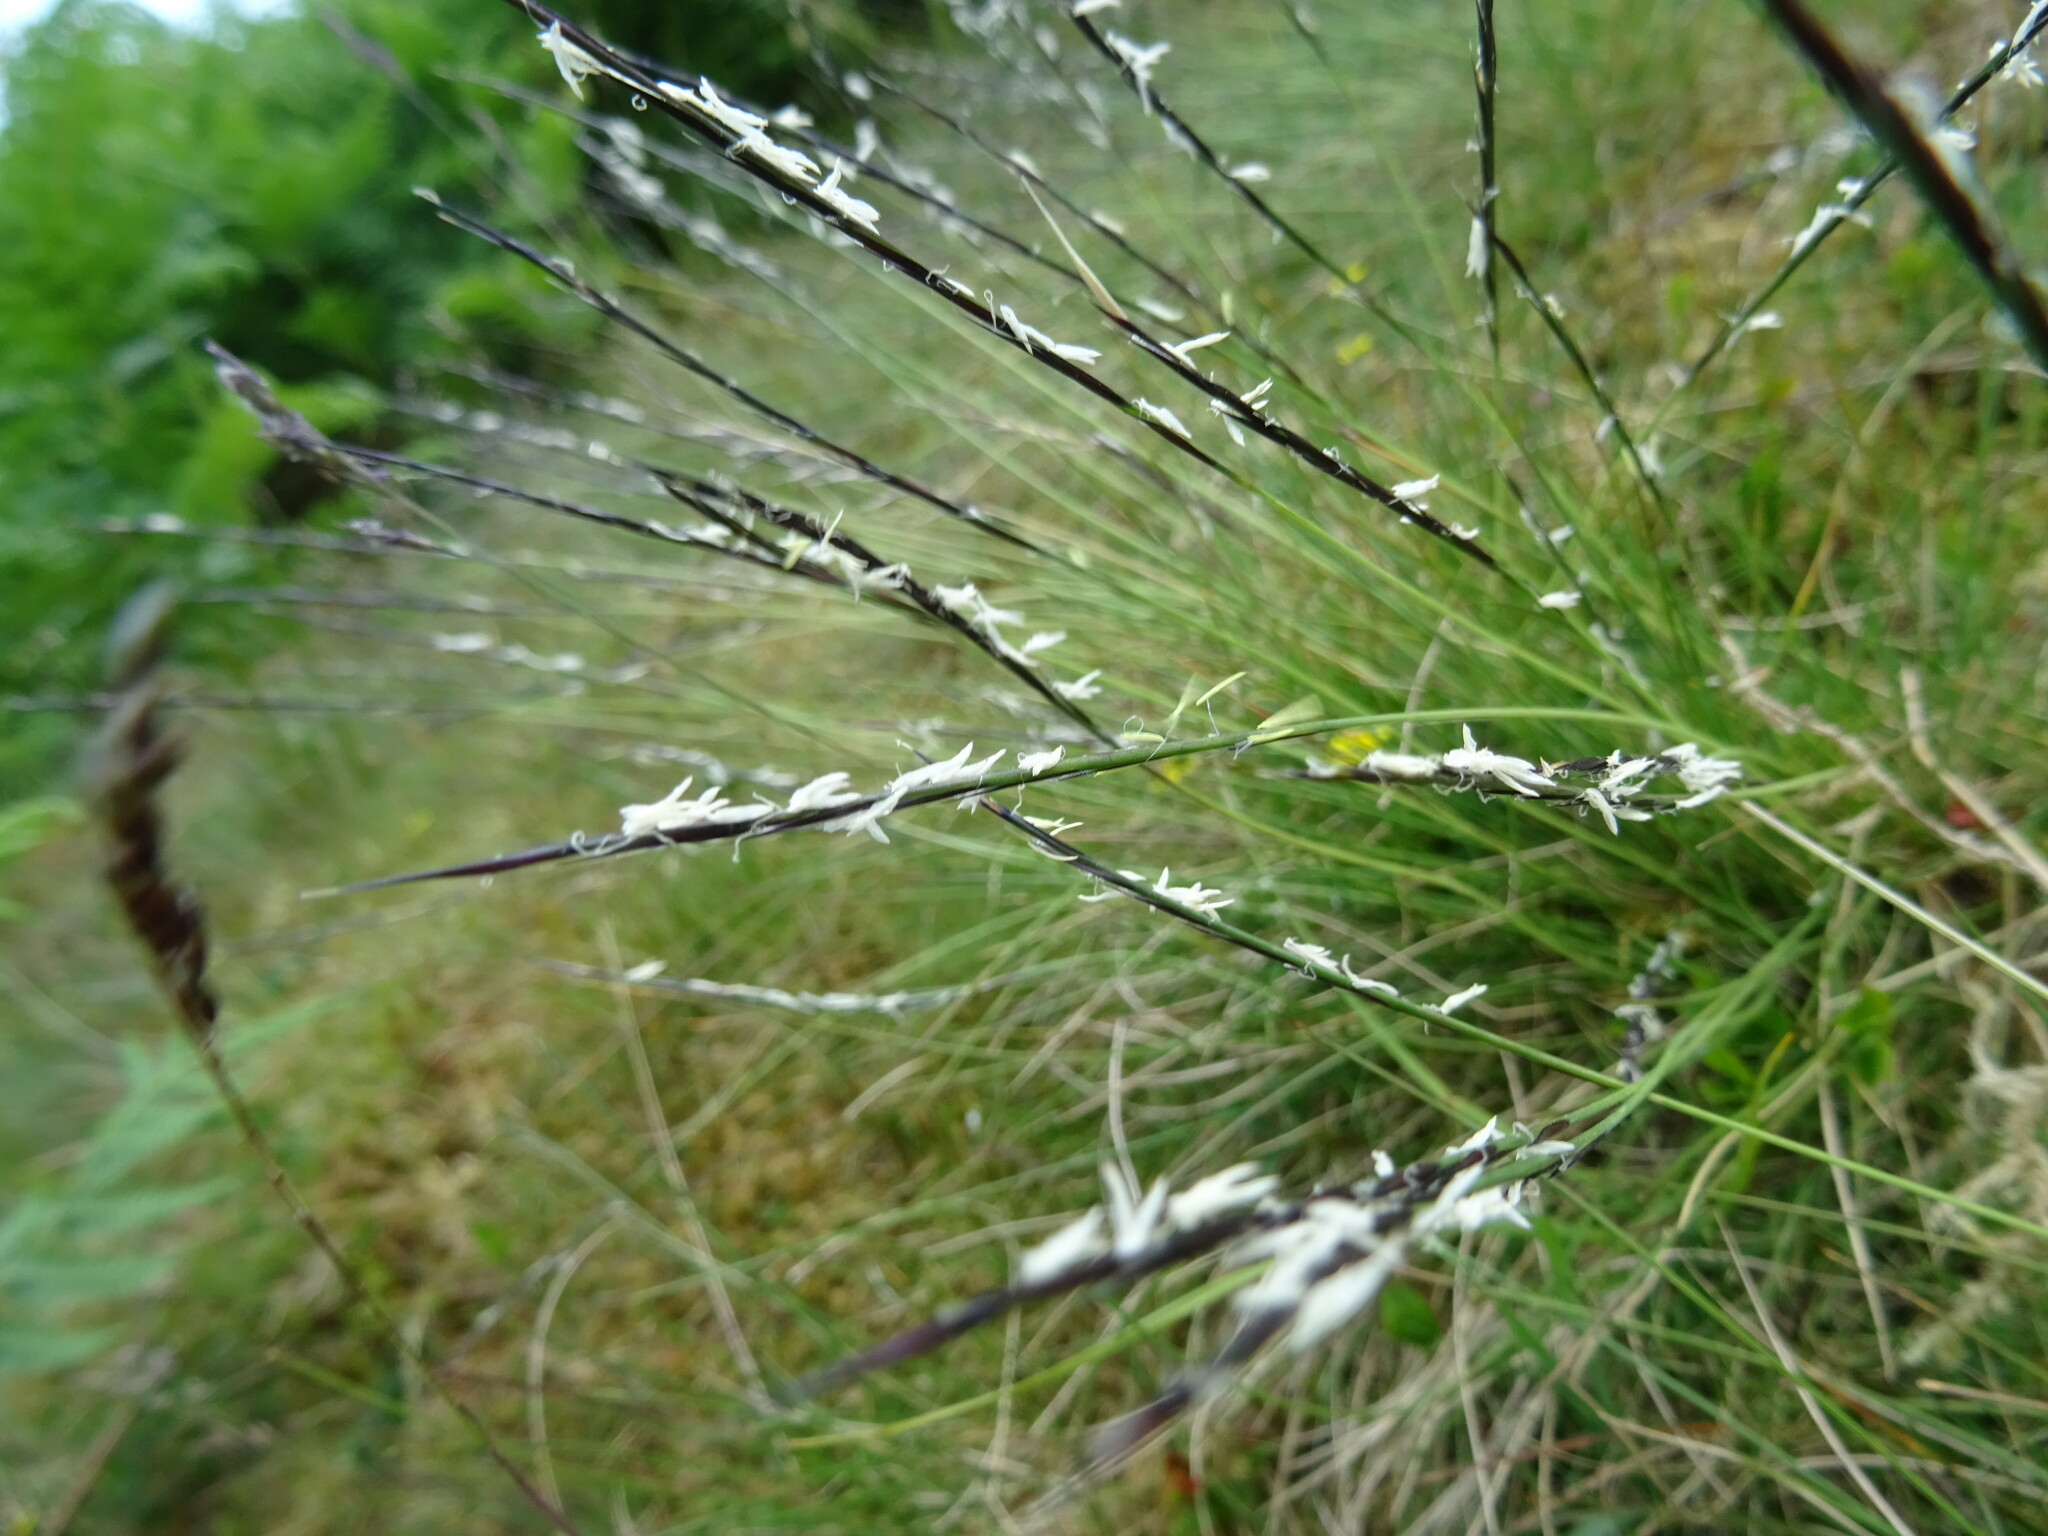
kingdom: Plantae
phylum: Tracheophyta
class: Liliopsida
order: Poales
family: Poaceae
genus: Nardus
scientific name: Nardus stricta
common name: Mat-grass
